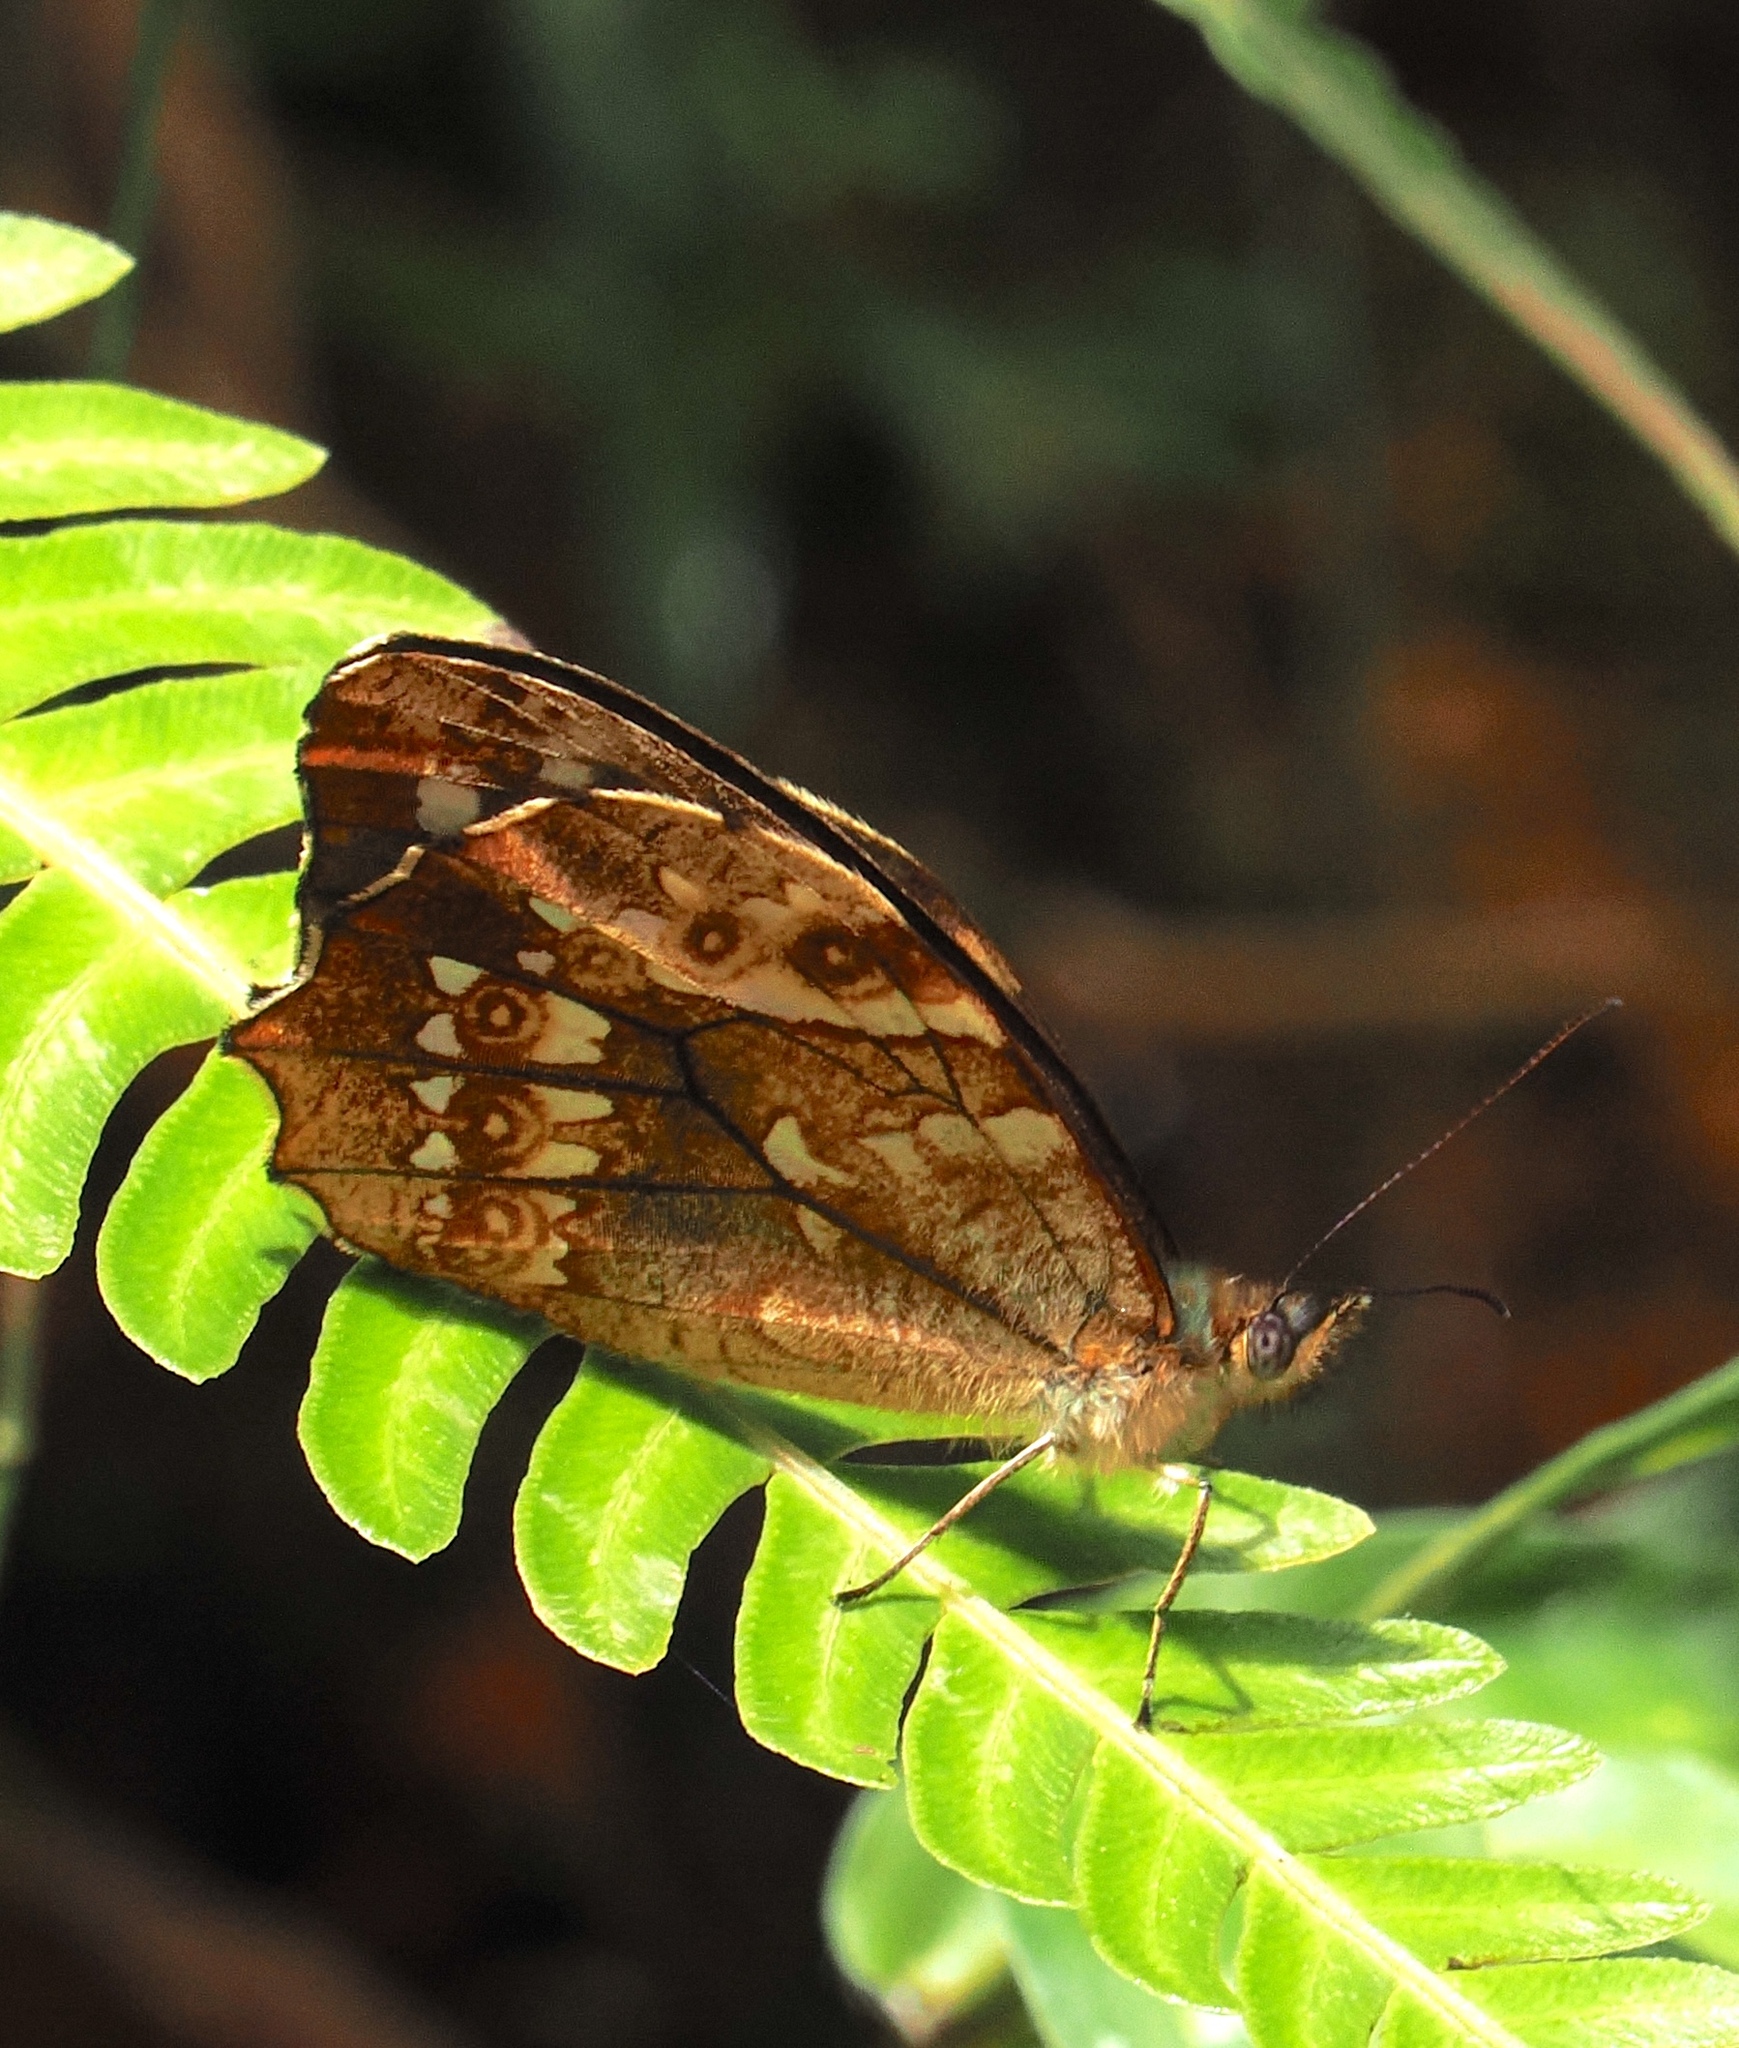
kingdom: Animalia
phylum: Arthropoda
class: Insecta
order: Lepidoptera
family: Nymphalidae
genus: Foetterleia
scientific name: Foetterleia schreineri
